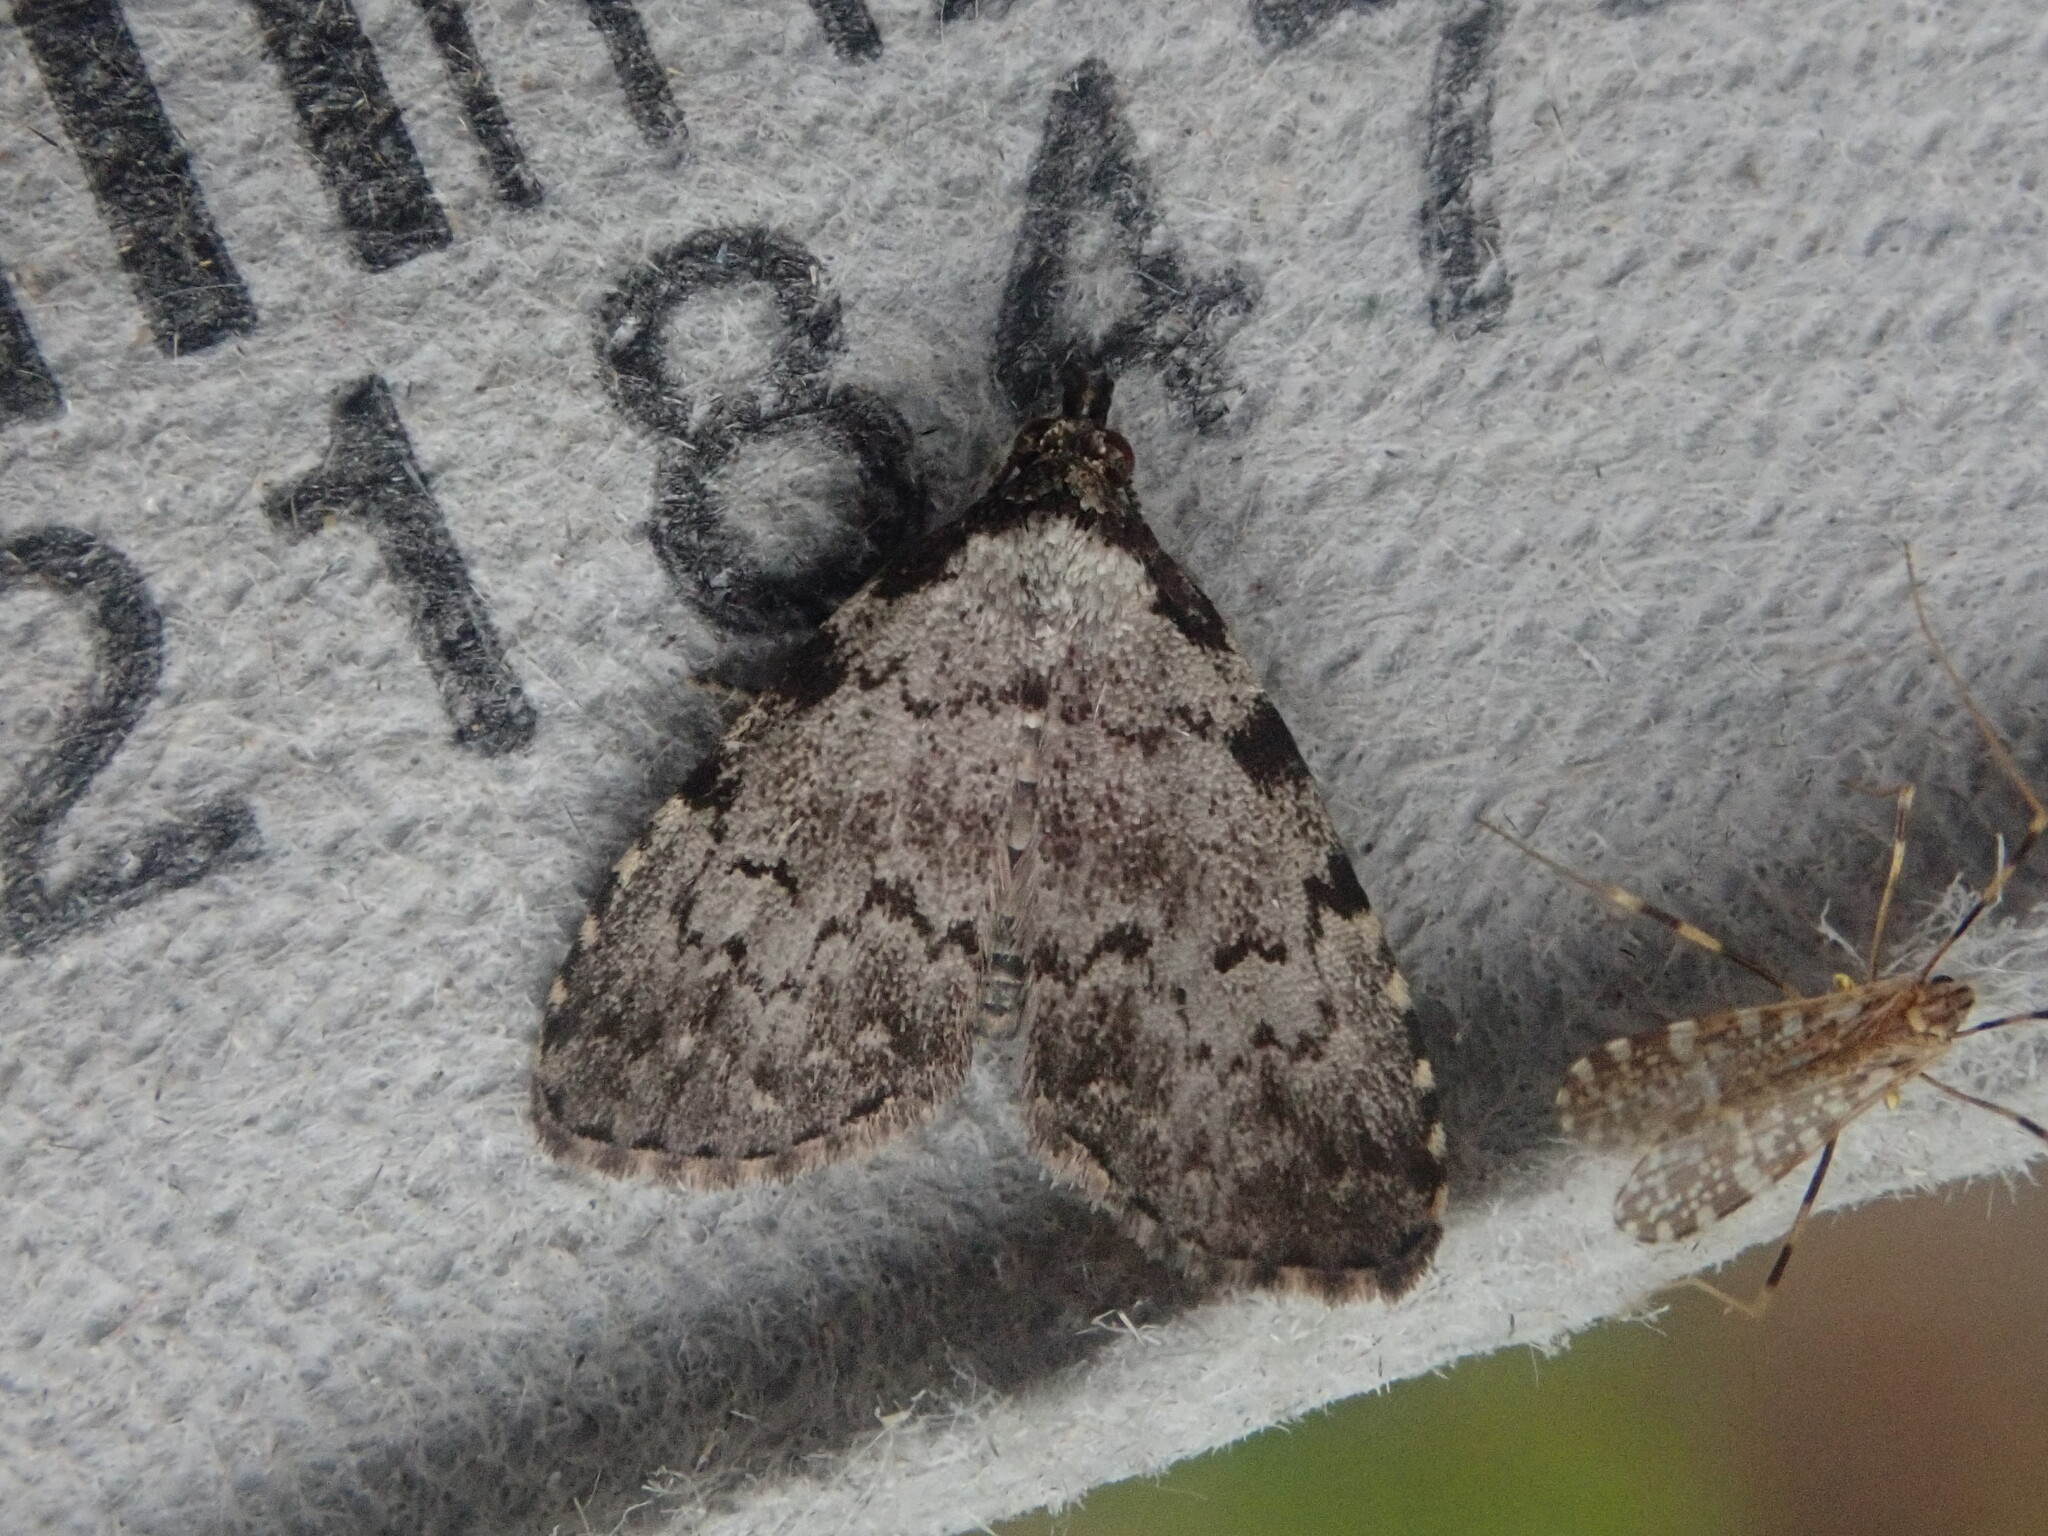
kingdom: Animalia
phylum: Arthropoda
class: Insecta
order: Lepidoptera
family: Erebidae
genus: Dyspyralis
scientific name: Dyspyralis puncticosta
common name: Spot-edged dyspyralis moth
